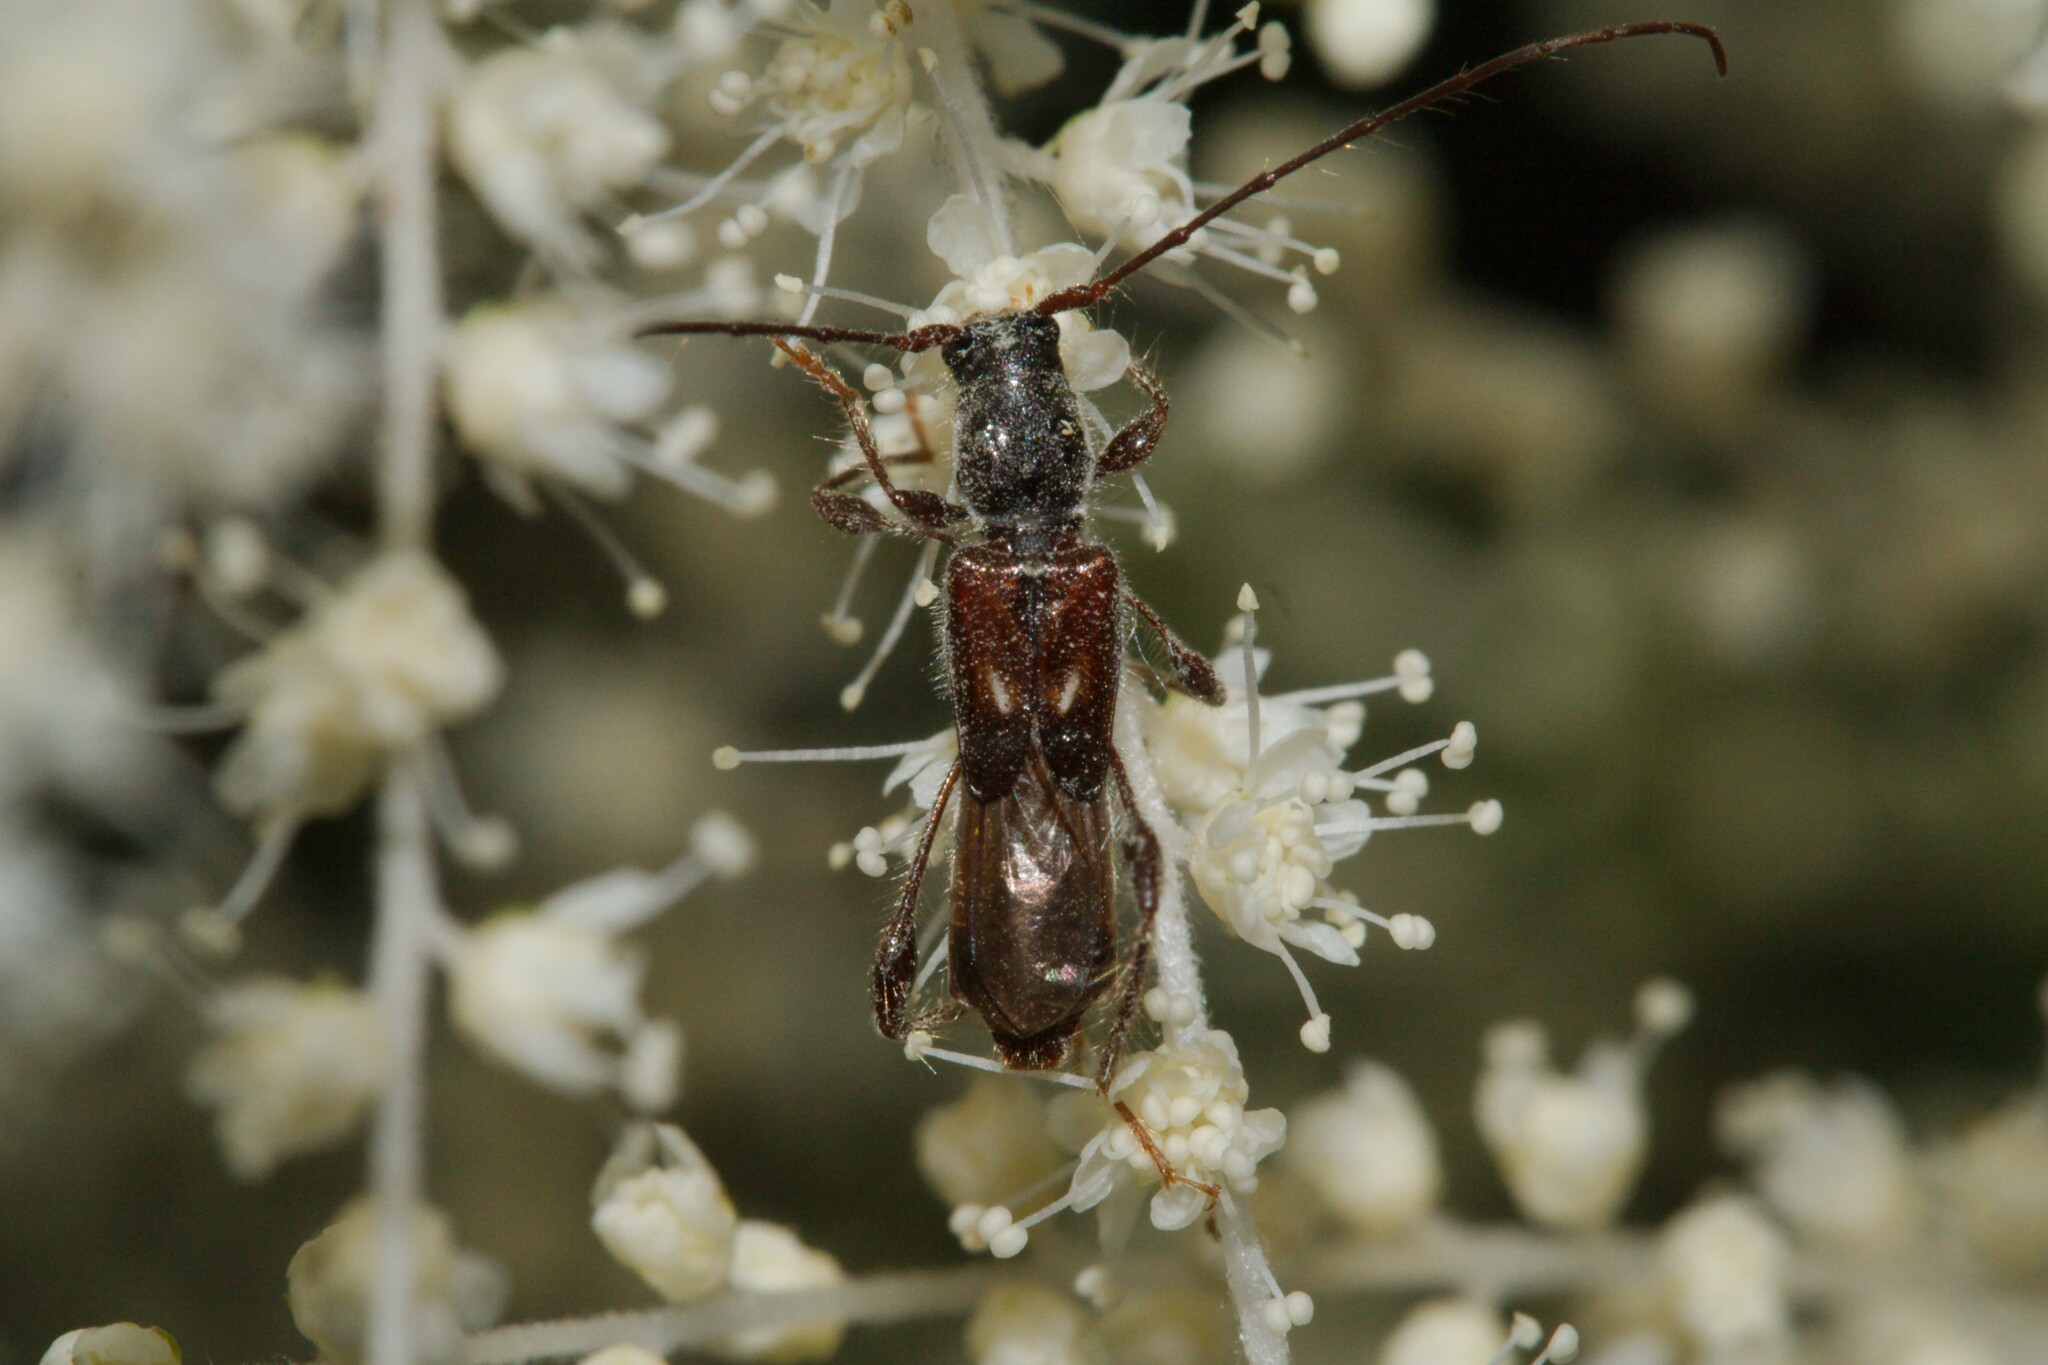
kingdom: Animalia
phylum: Arthropoda
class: Insecta
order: Coleoptera
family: Cerambycidae
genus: Molorchus
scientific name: Molorchus minor
